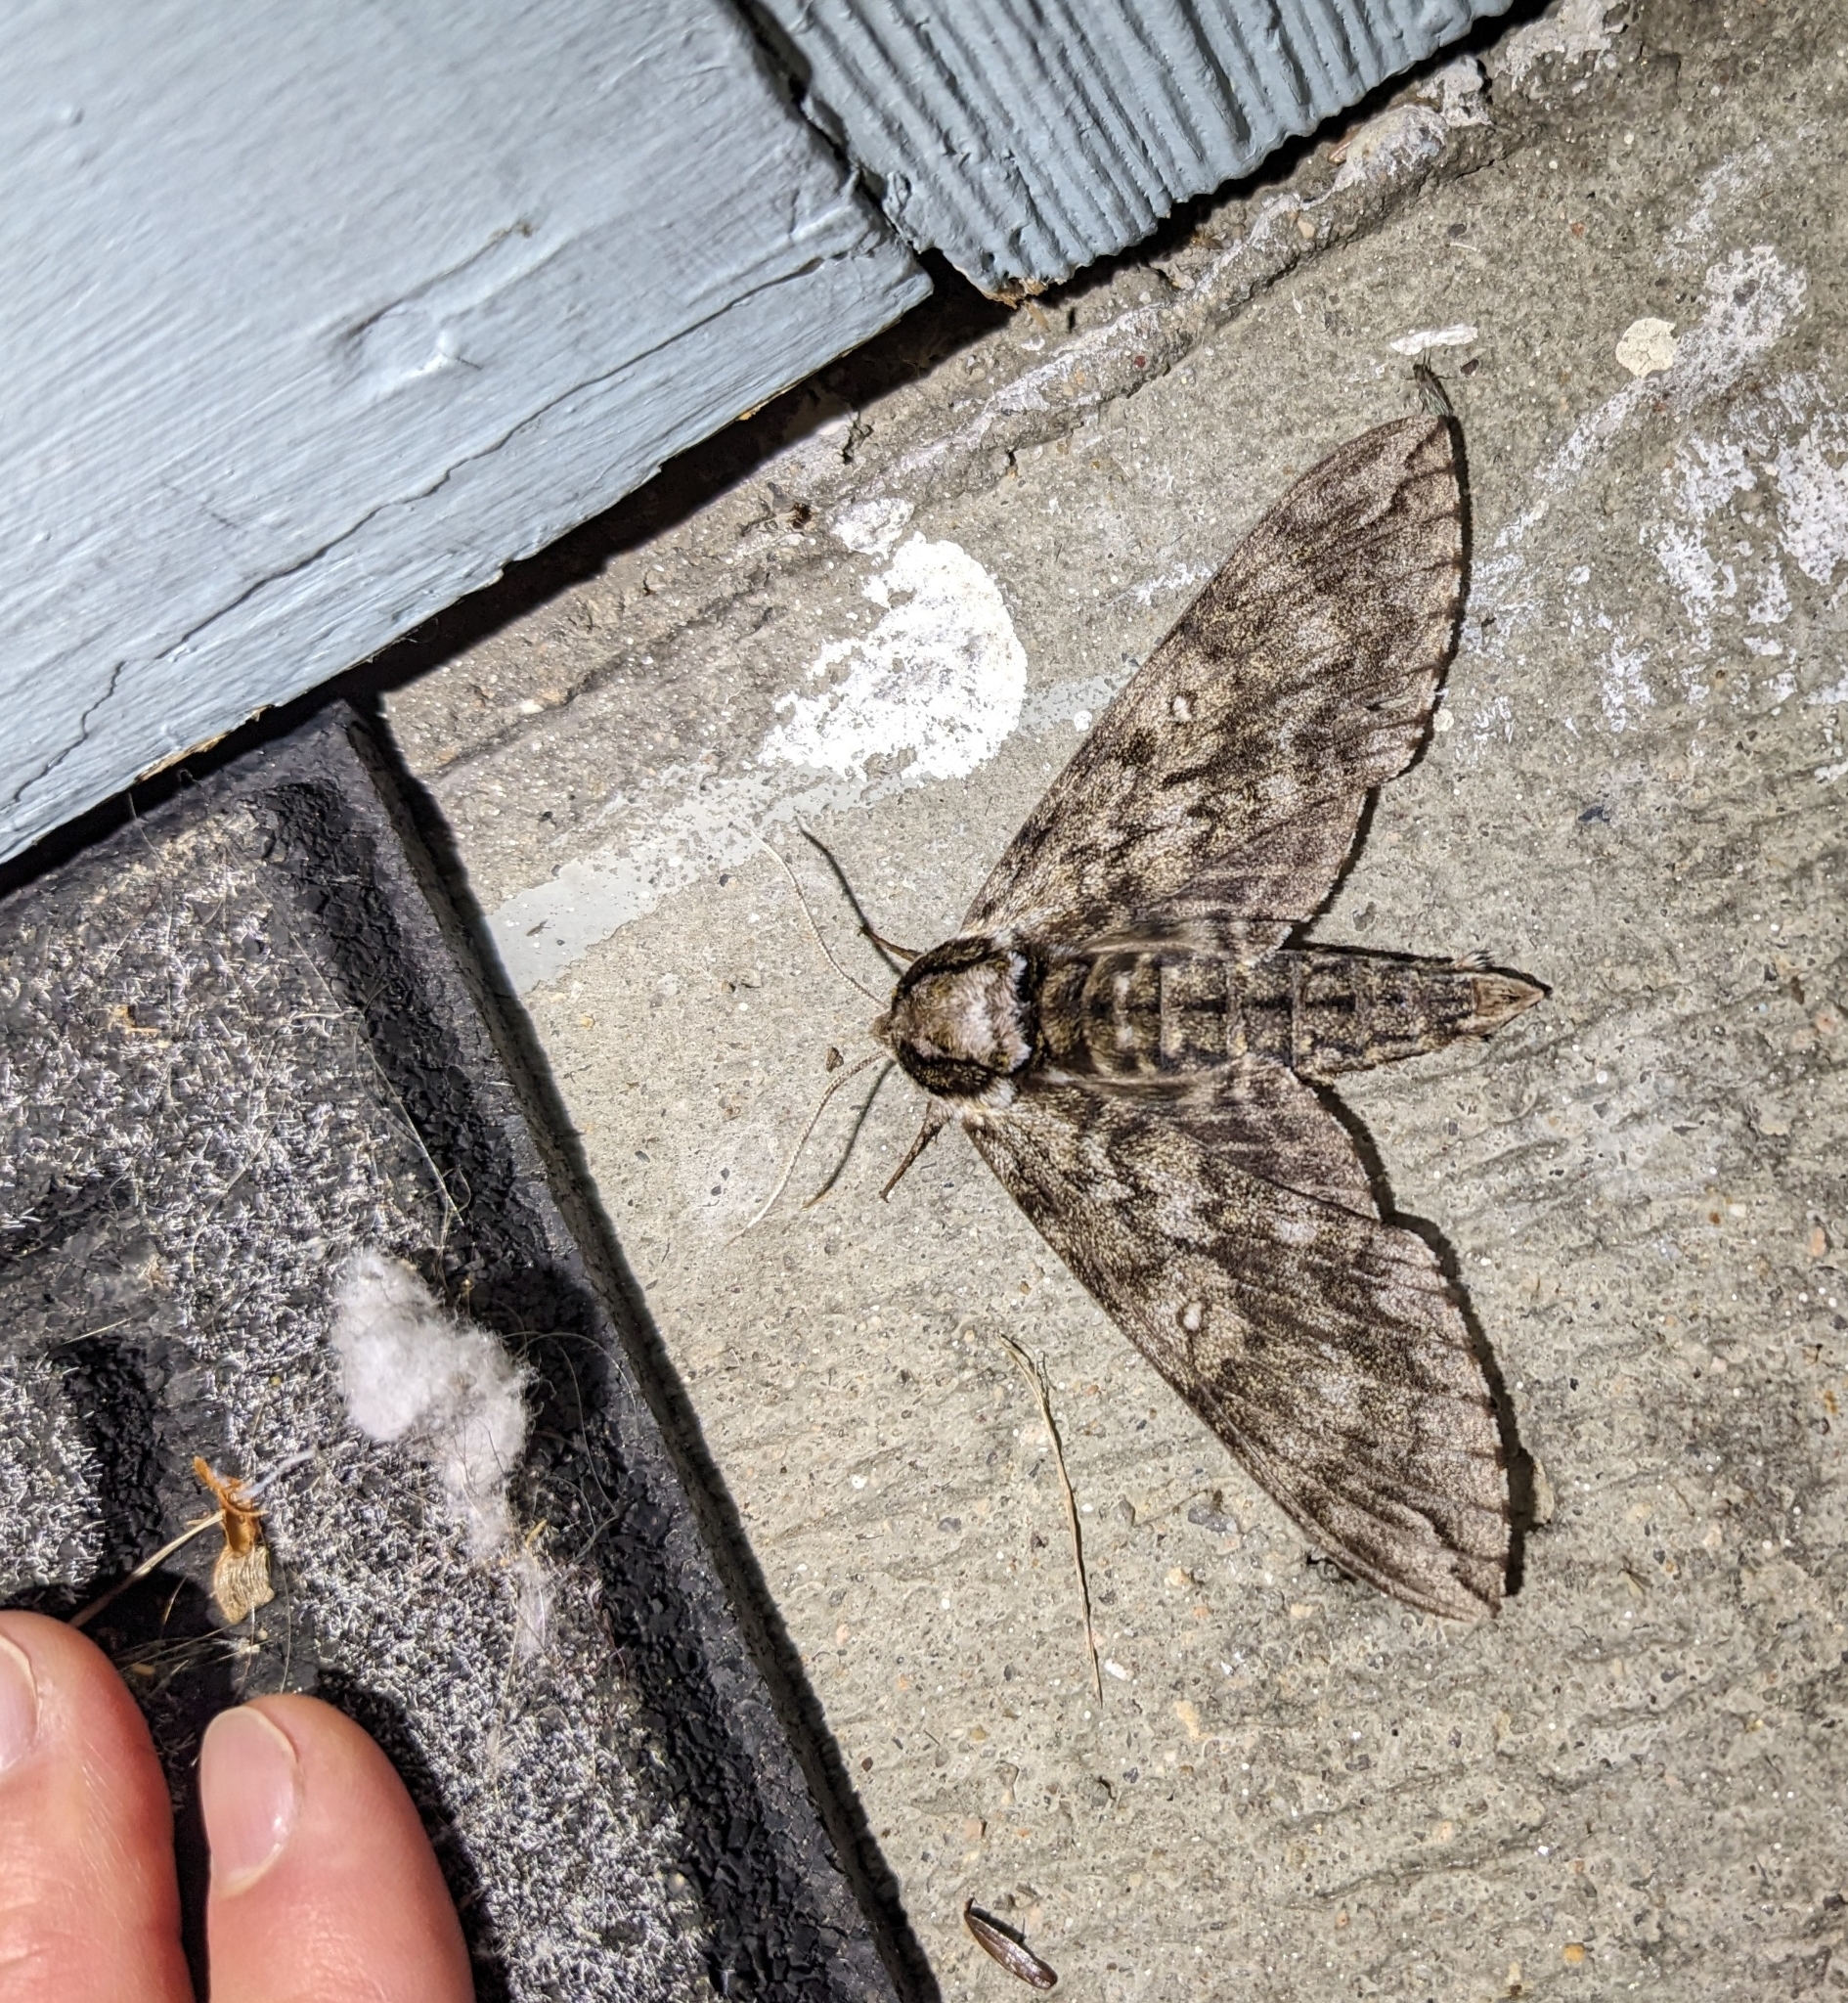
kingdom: Animalia
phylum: Arthropoda
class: Insecta
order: Lepidoptera
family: Sphingidae
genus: Ceratomia
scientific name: Ceratomia undulosa
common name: Waved sphinx
